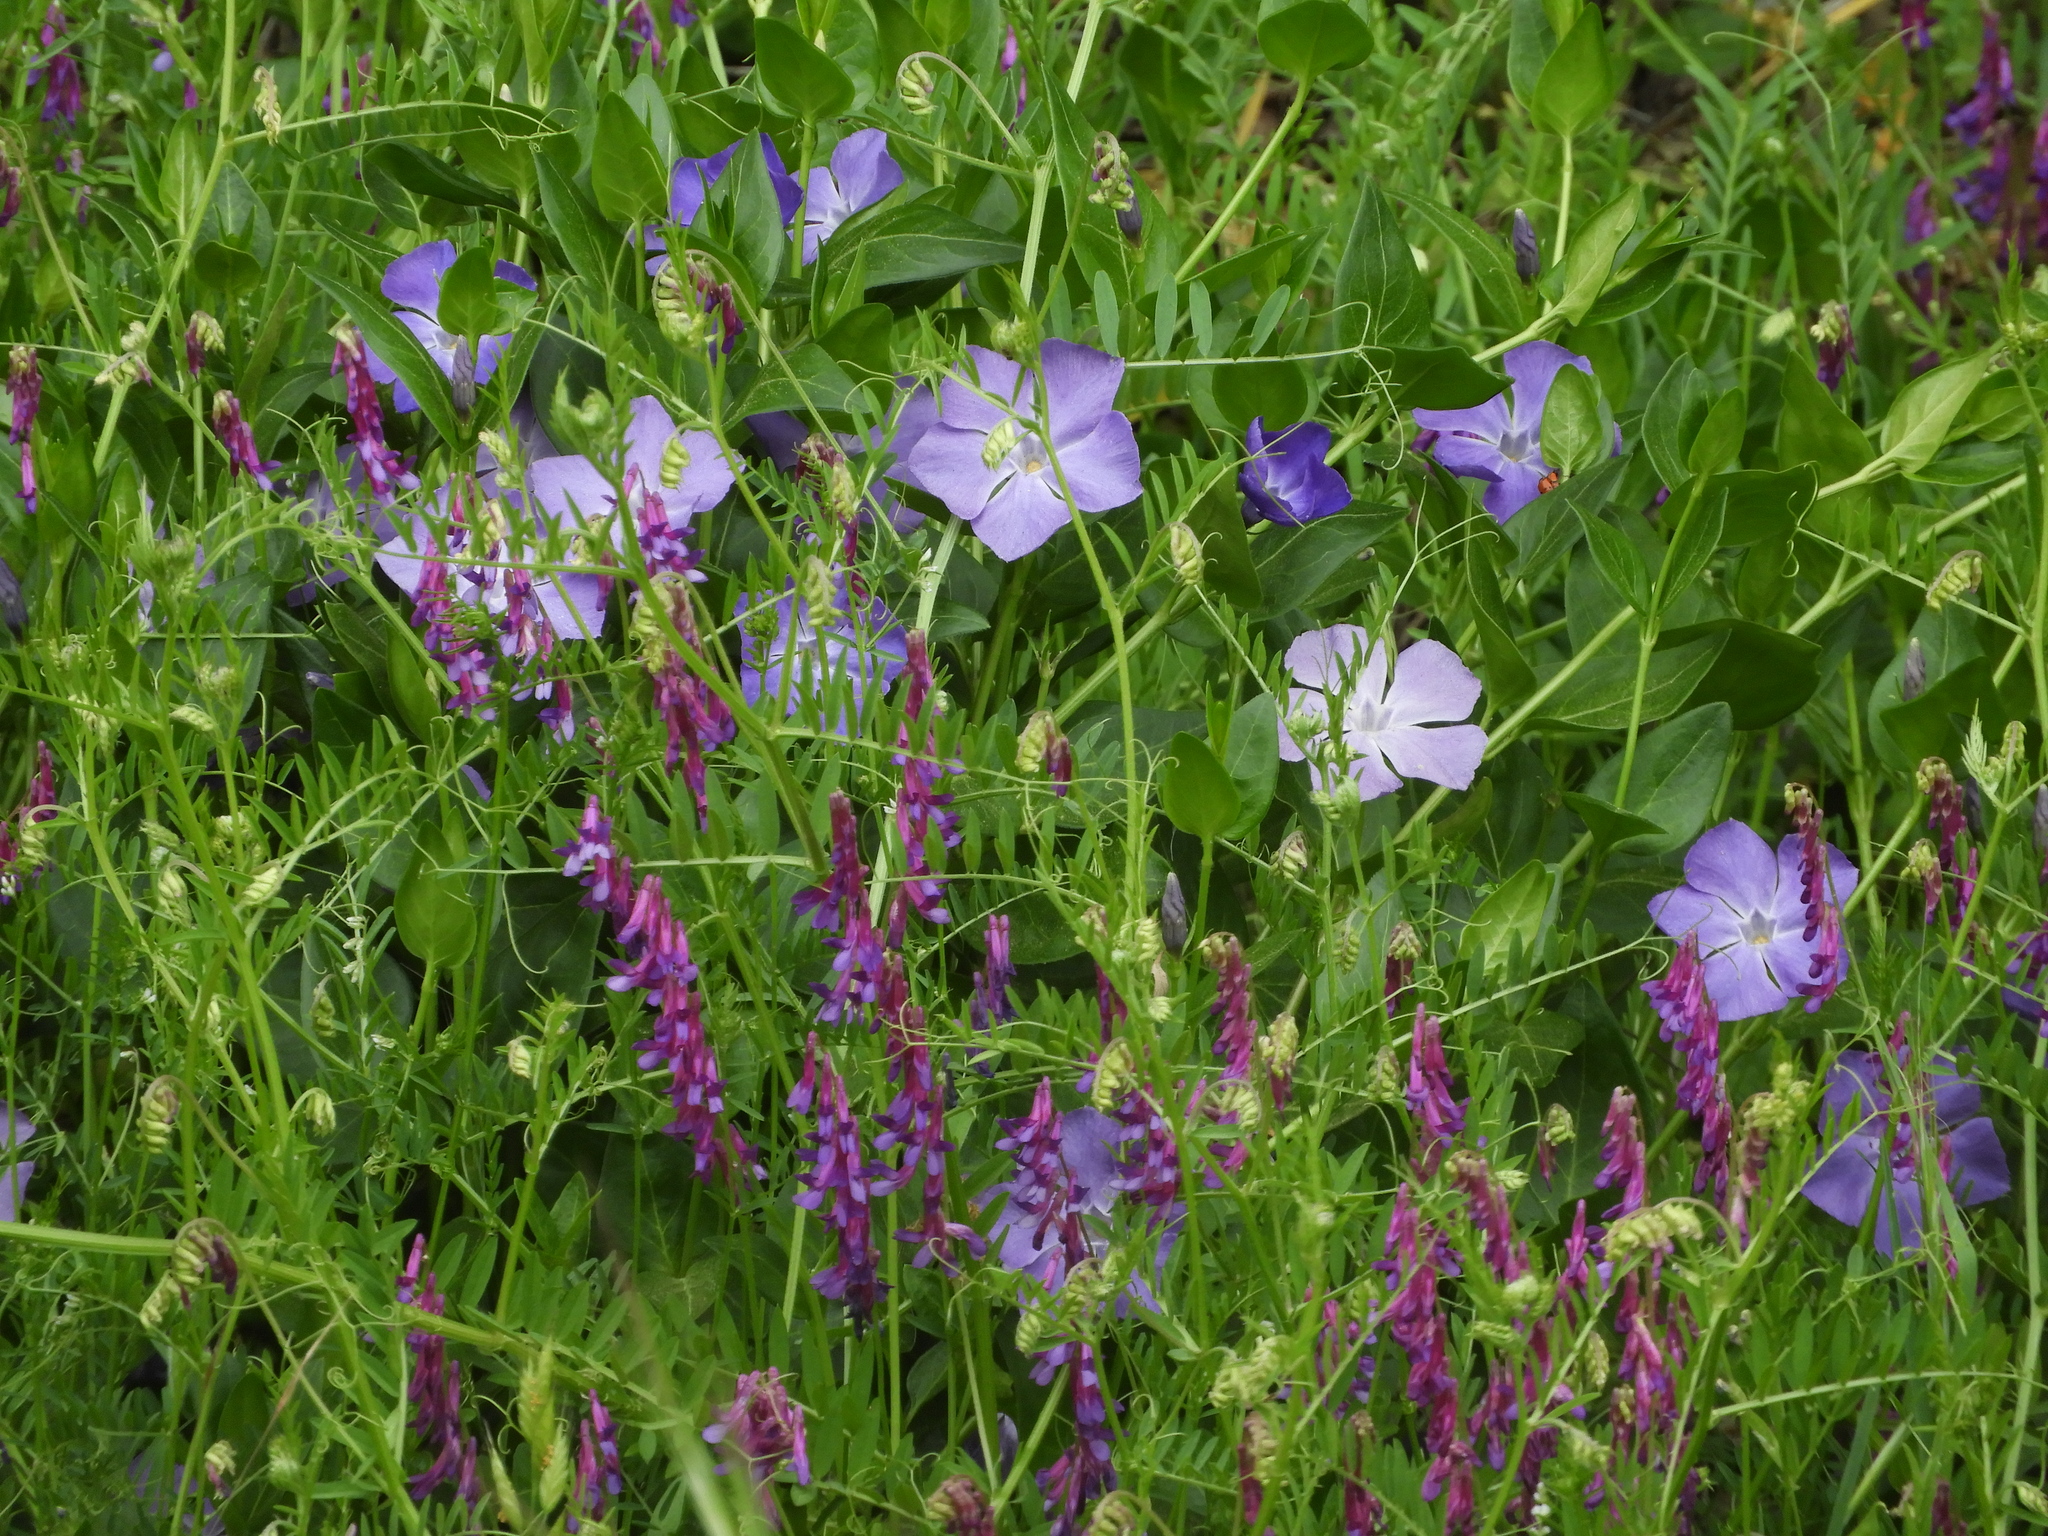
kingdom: Plantae
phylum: Tracheophyta
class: Magnoliopsida
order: Gentianales
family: Apocynaceae
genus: Vinca
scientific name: Vinca major
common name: Greater periwinkle
